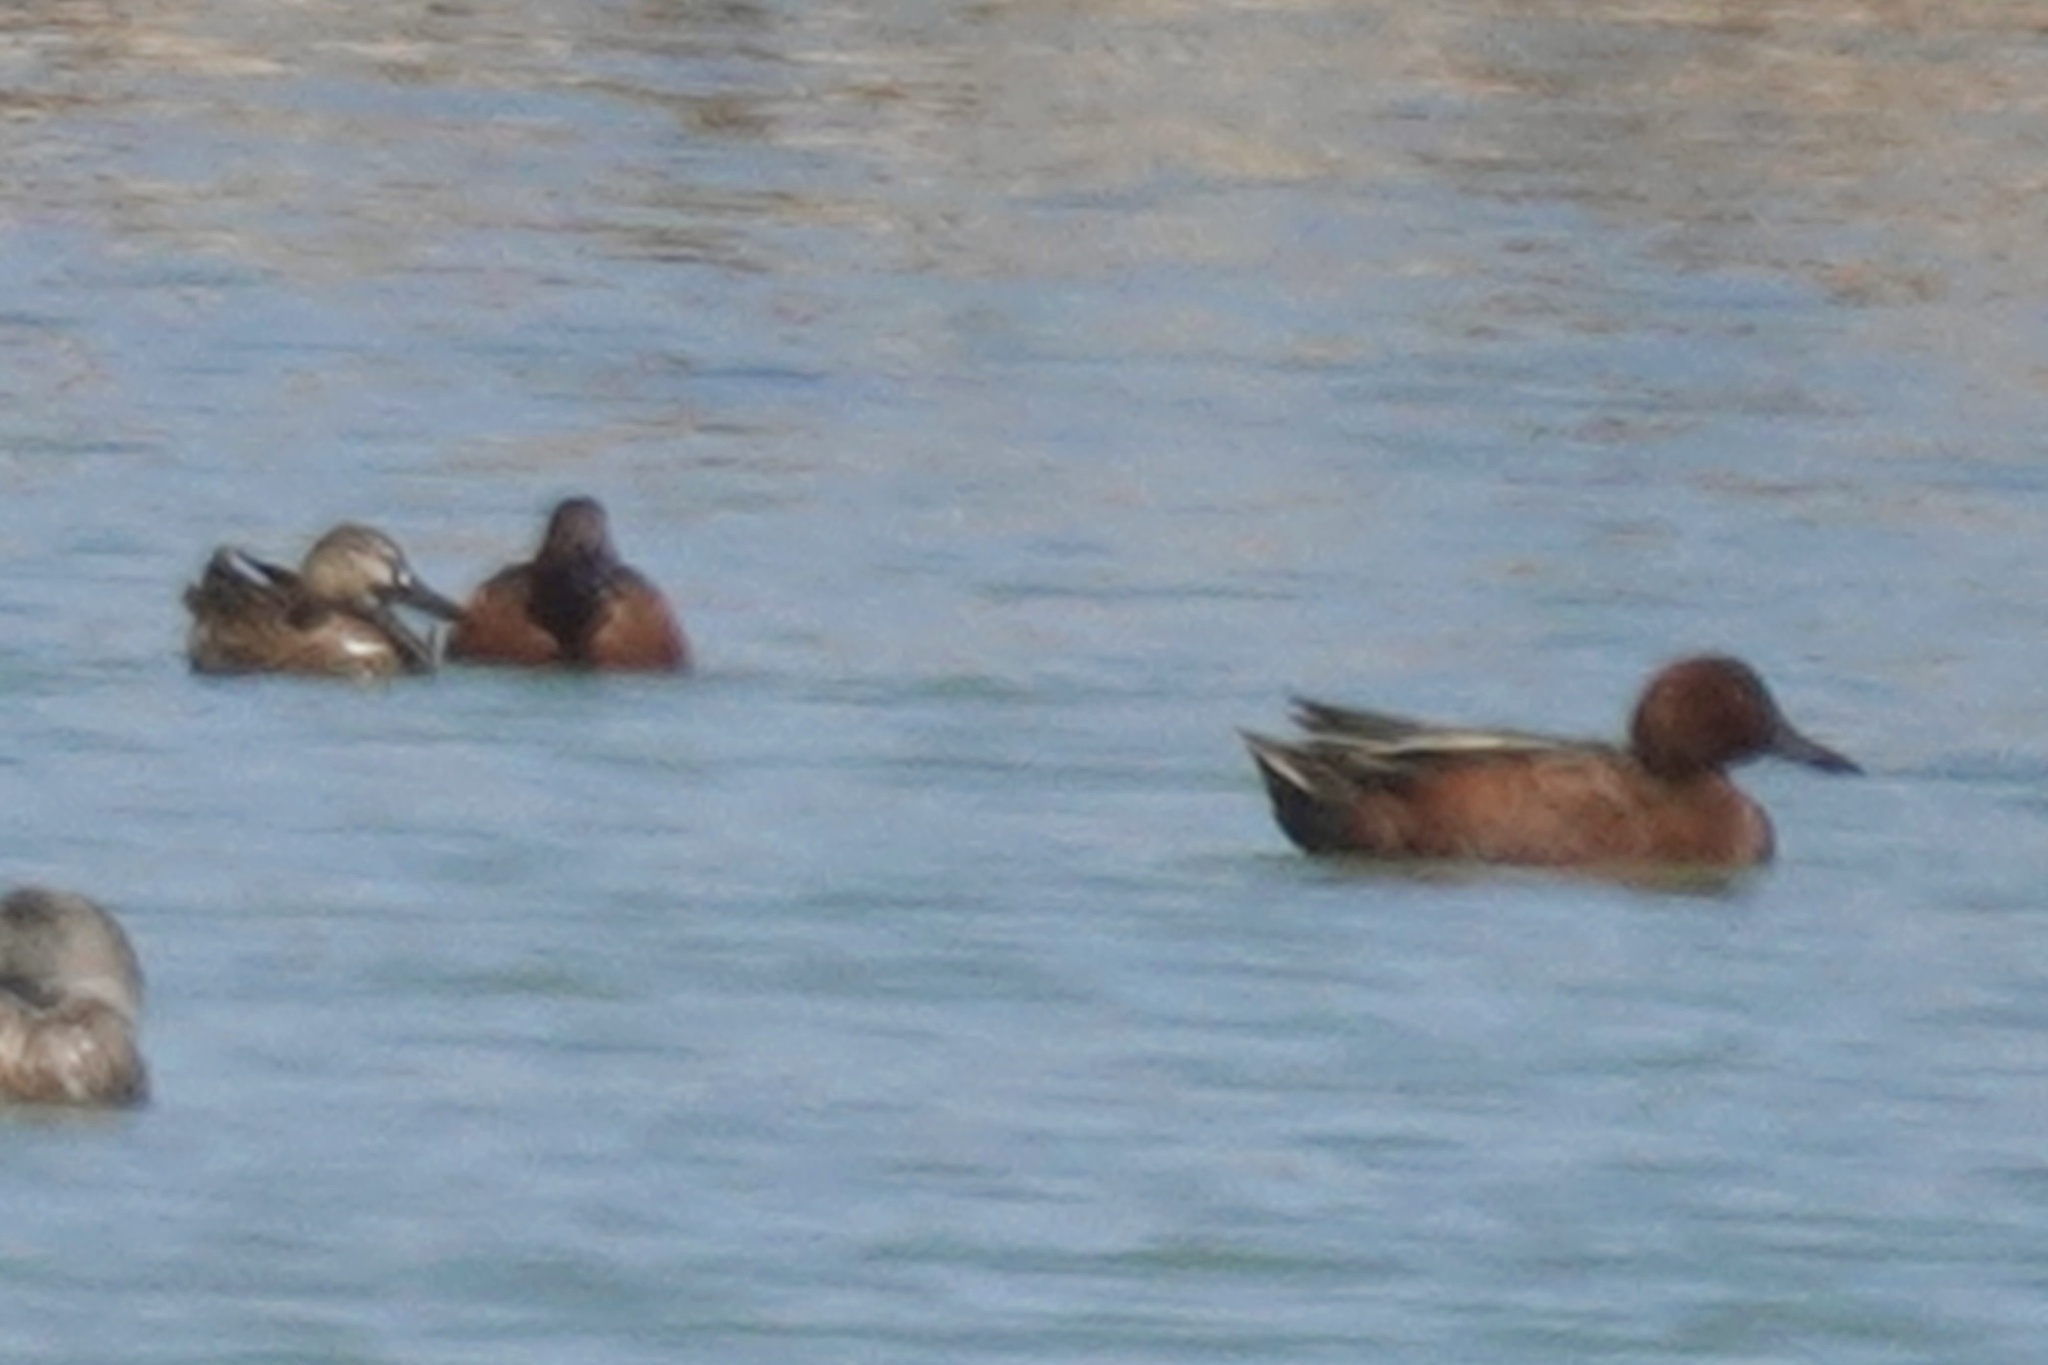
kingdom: Animalia
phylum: Chordata
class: Aves
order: Anseriformes
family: Anatidae
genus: Spatula
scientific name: Spatula cyanoptera
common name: Cinnamon teal
